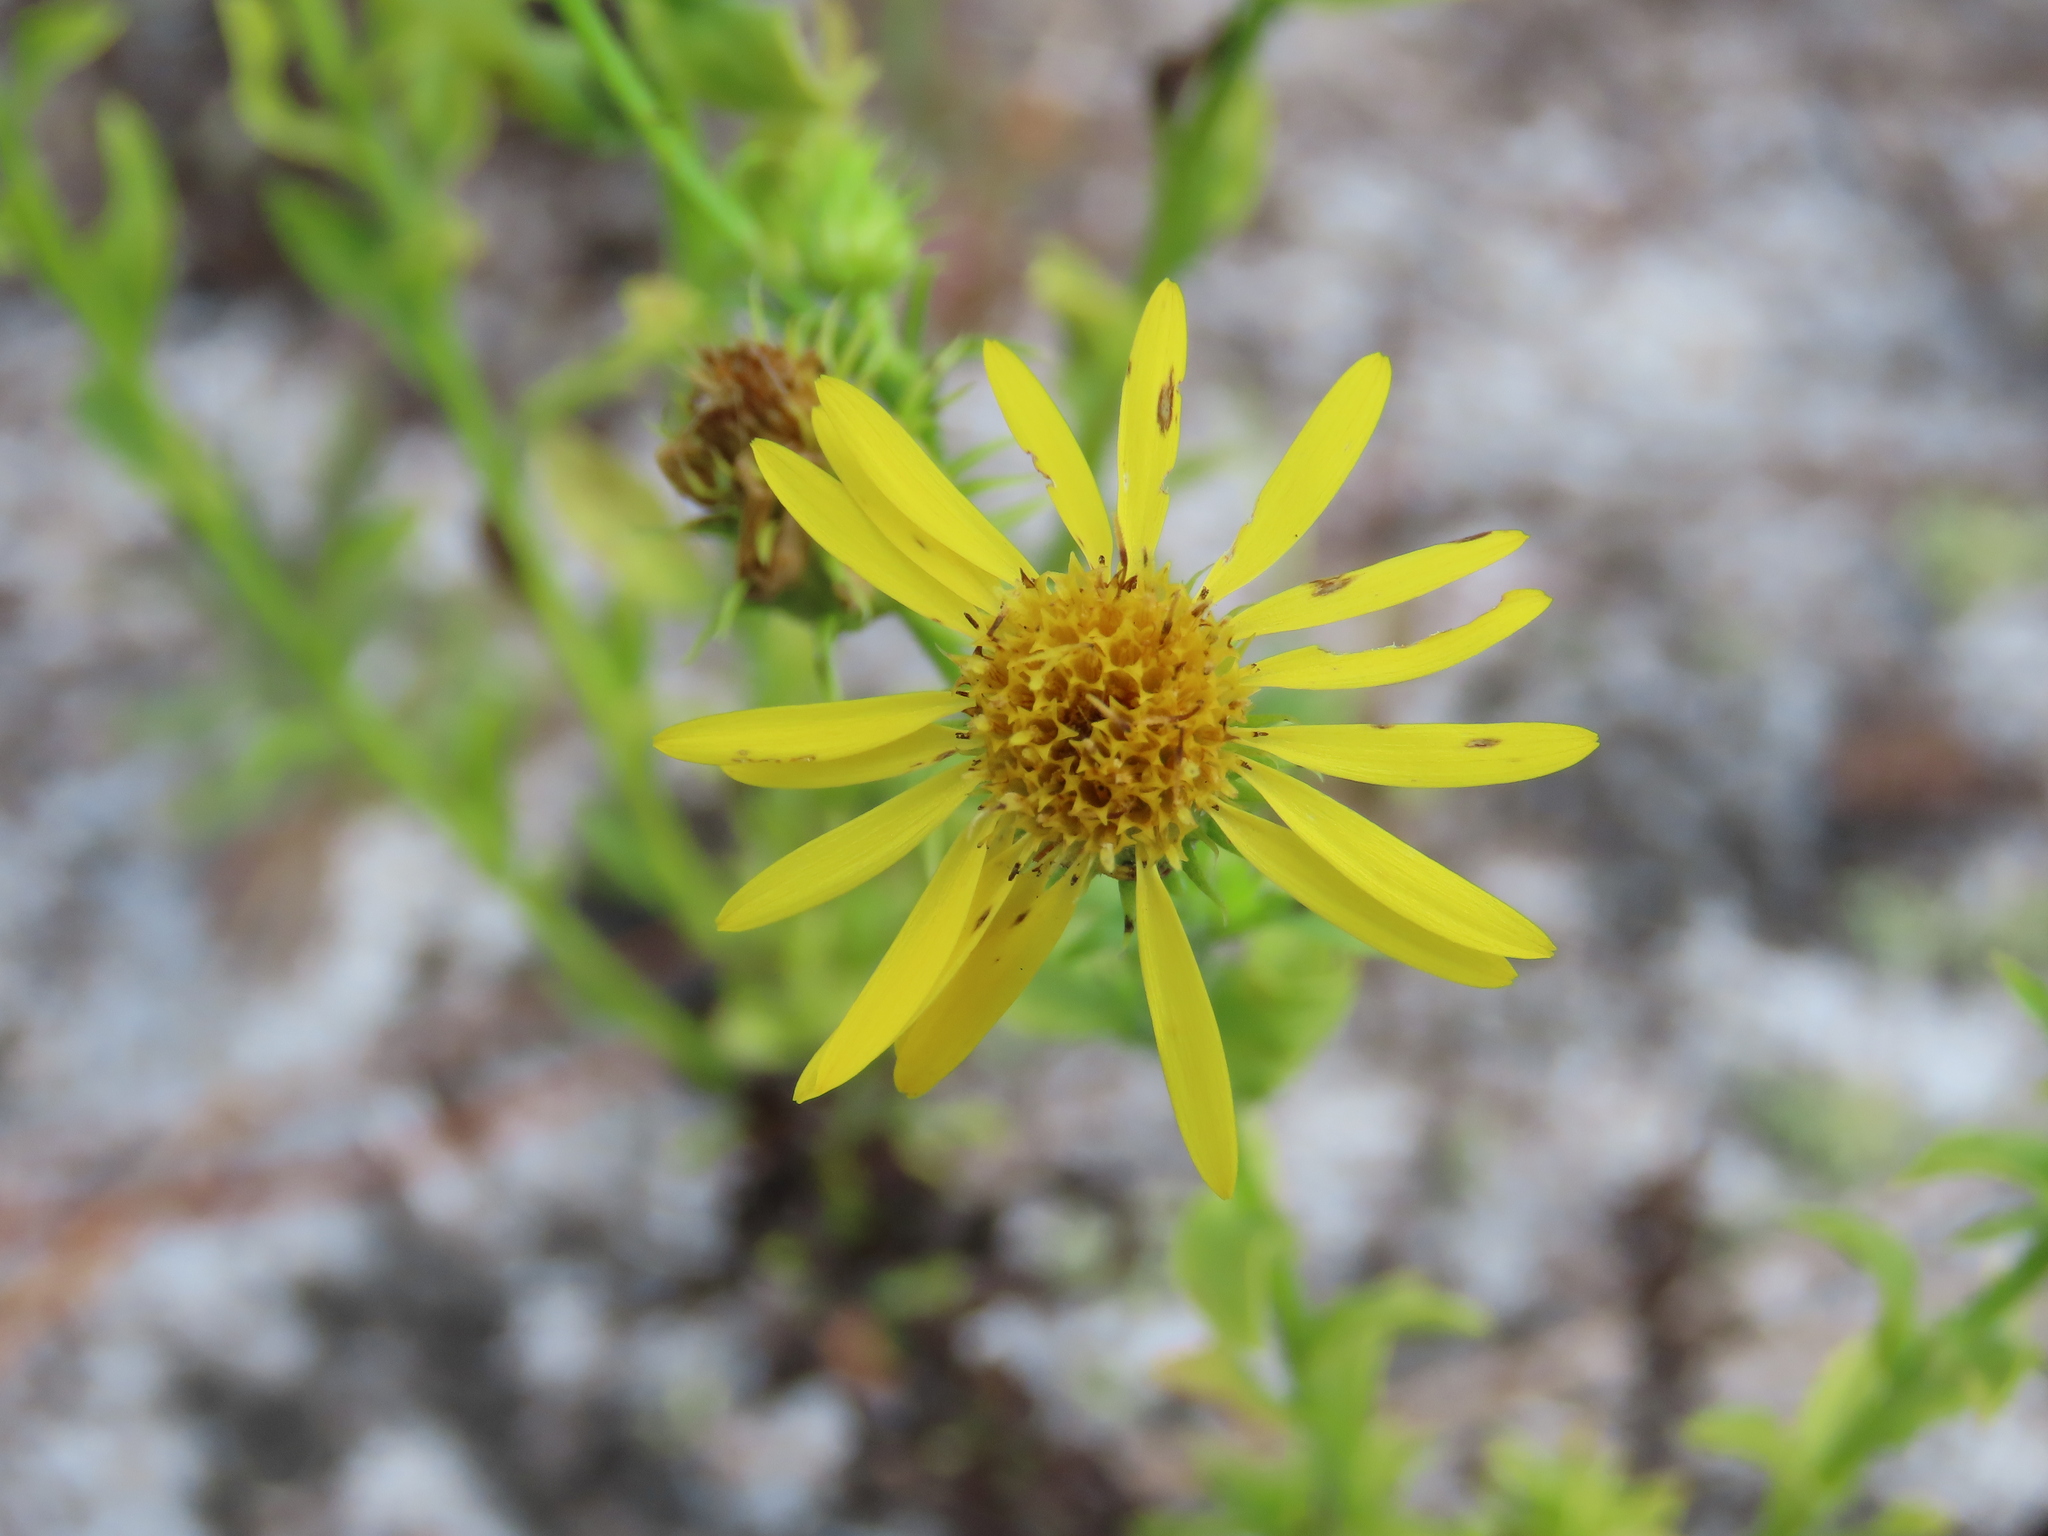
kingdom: Plantae
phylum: Tracheophyta
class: Magnoliopsida
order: Asterales
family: Asteraceae
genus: Chrysopsis
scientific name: Chrysopsis subulata
